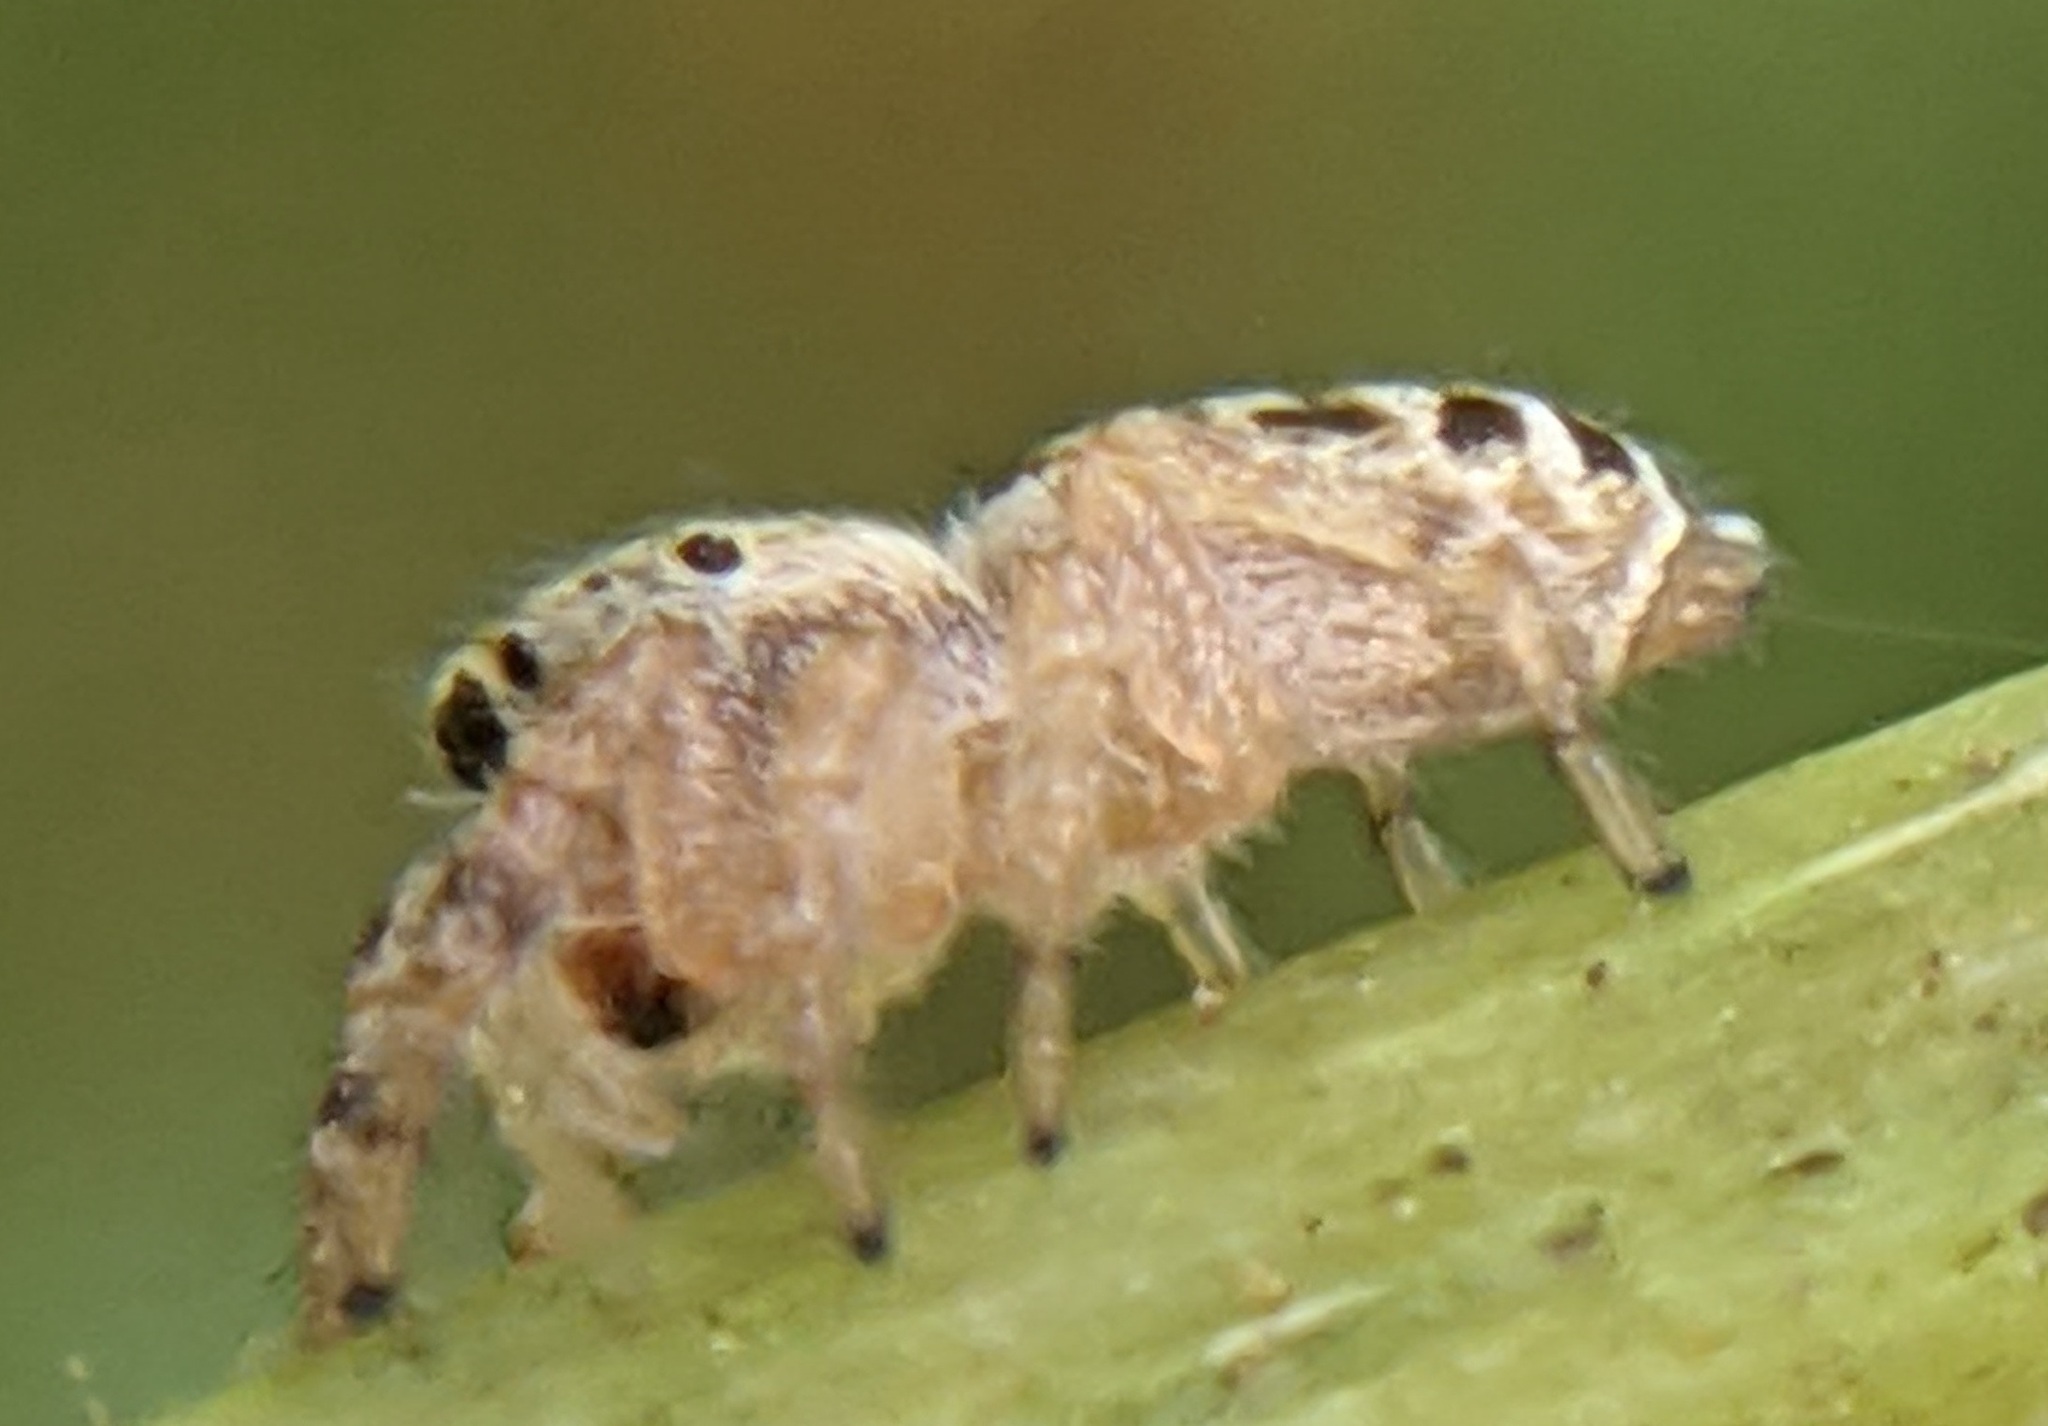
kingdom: Animalia
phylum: Arthropoda
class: Arachnida
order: Araneae
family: Salticidae
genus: Pelegrina
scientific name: Pelegrina proterva
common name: Common white-cheeked jumping spider
